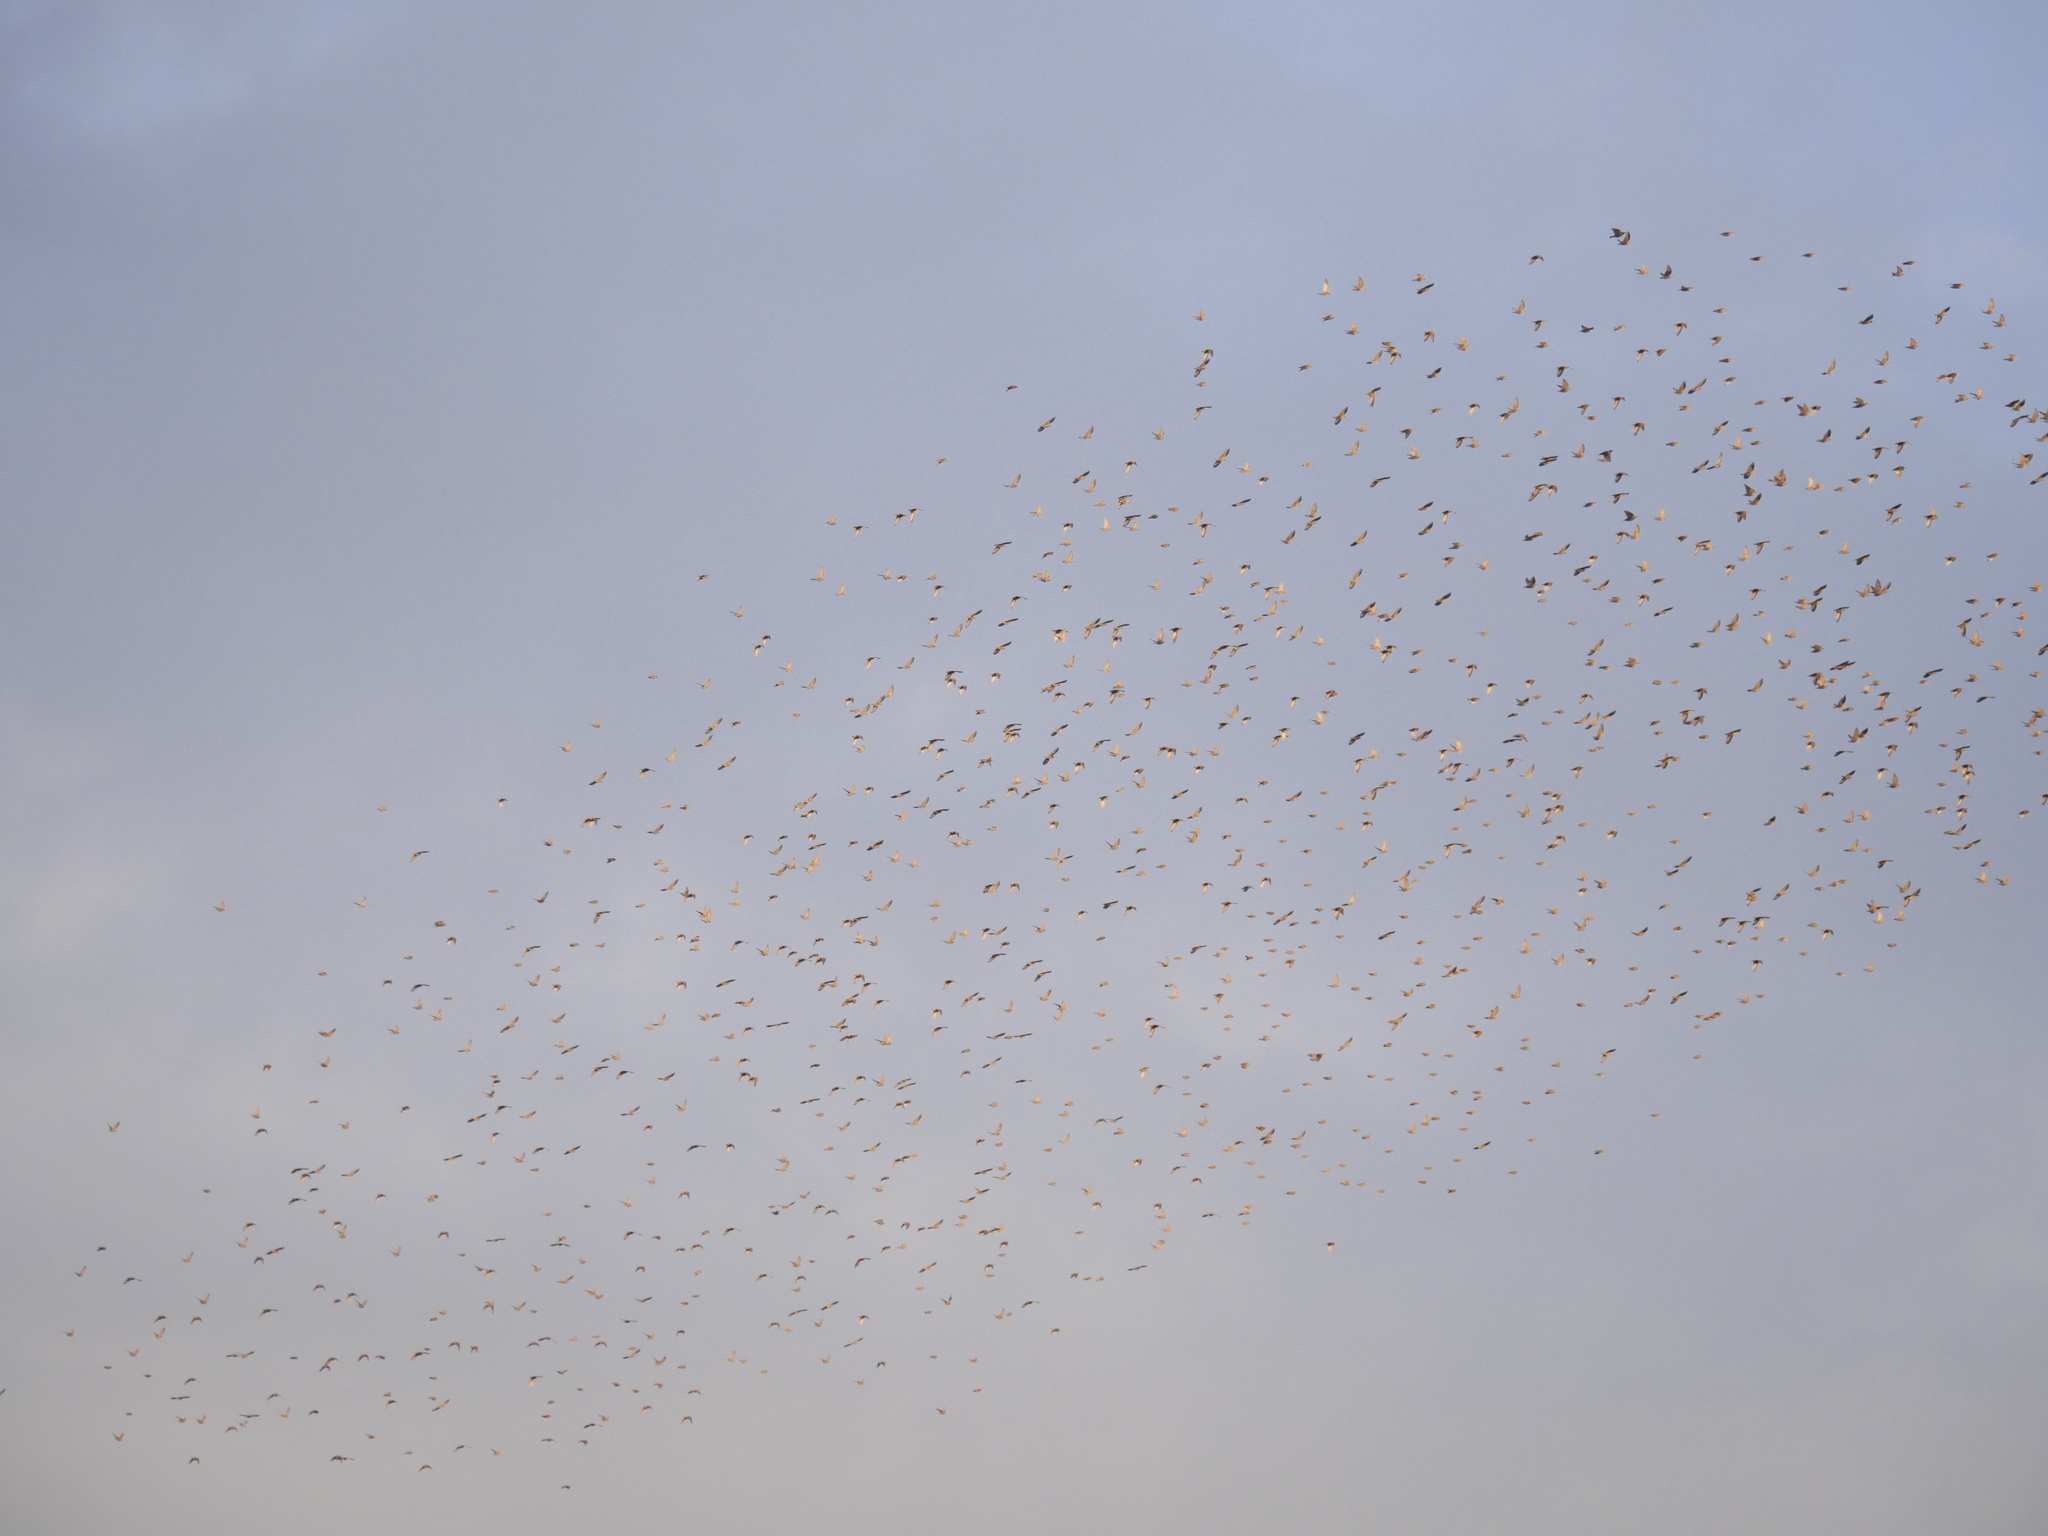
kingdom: Animalia
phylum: Chordata
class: Aves
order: Passeriformes
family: Sturnidae
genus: Sturnus
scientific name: Sturnus vulgaris
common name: Common starling
